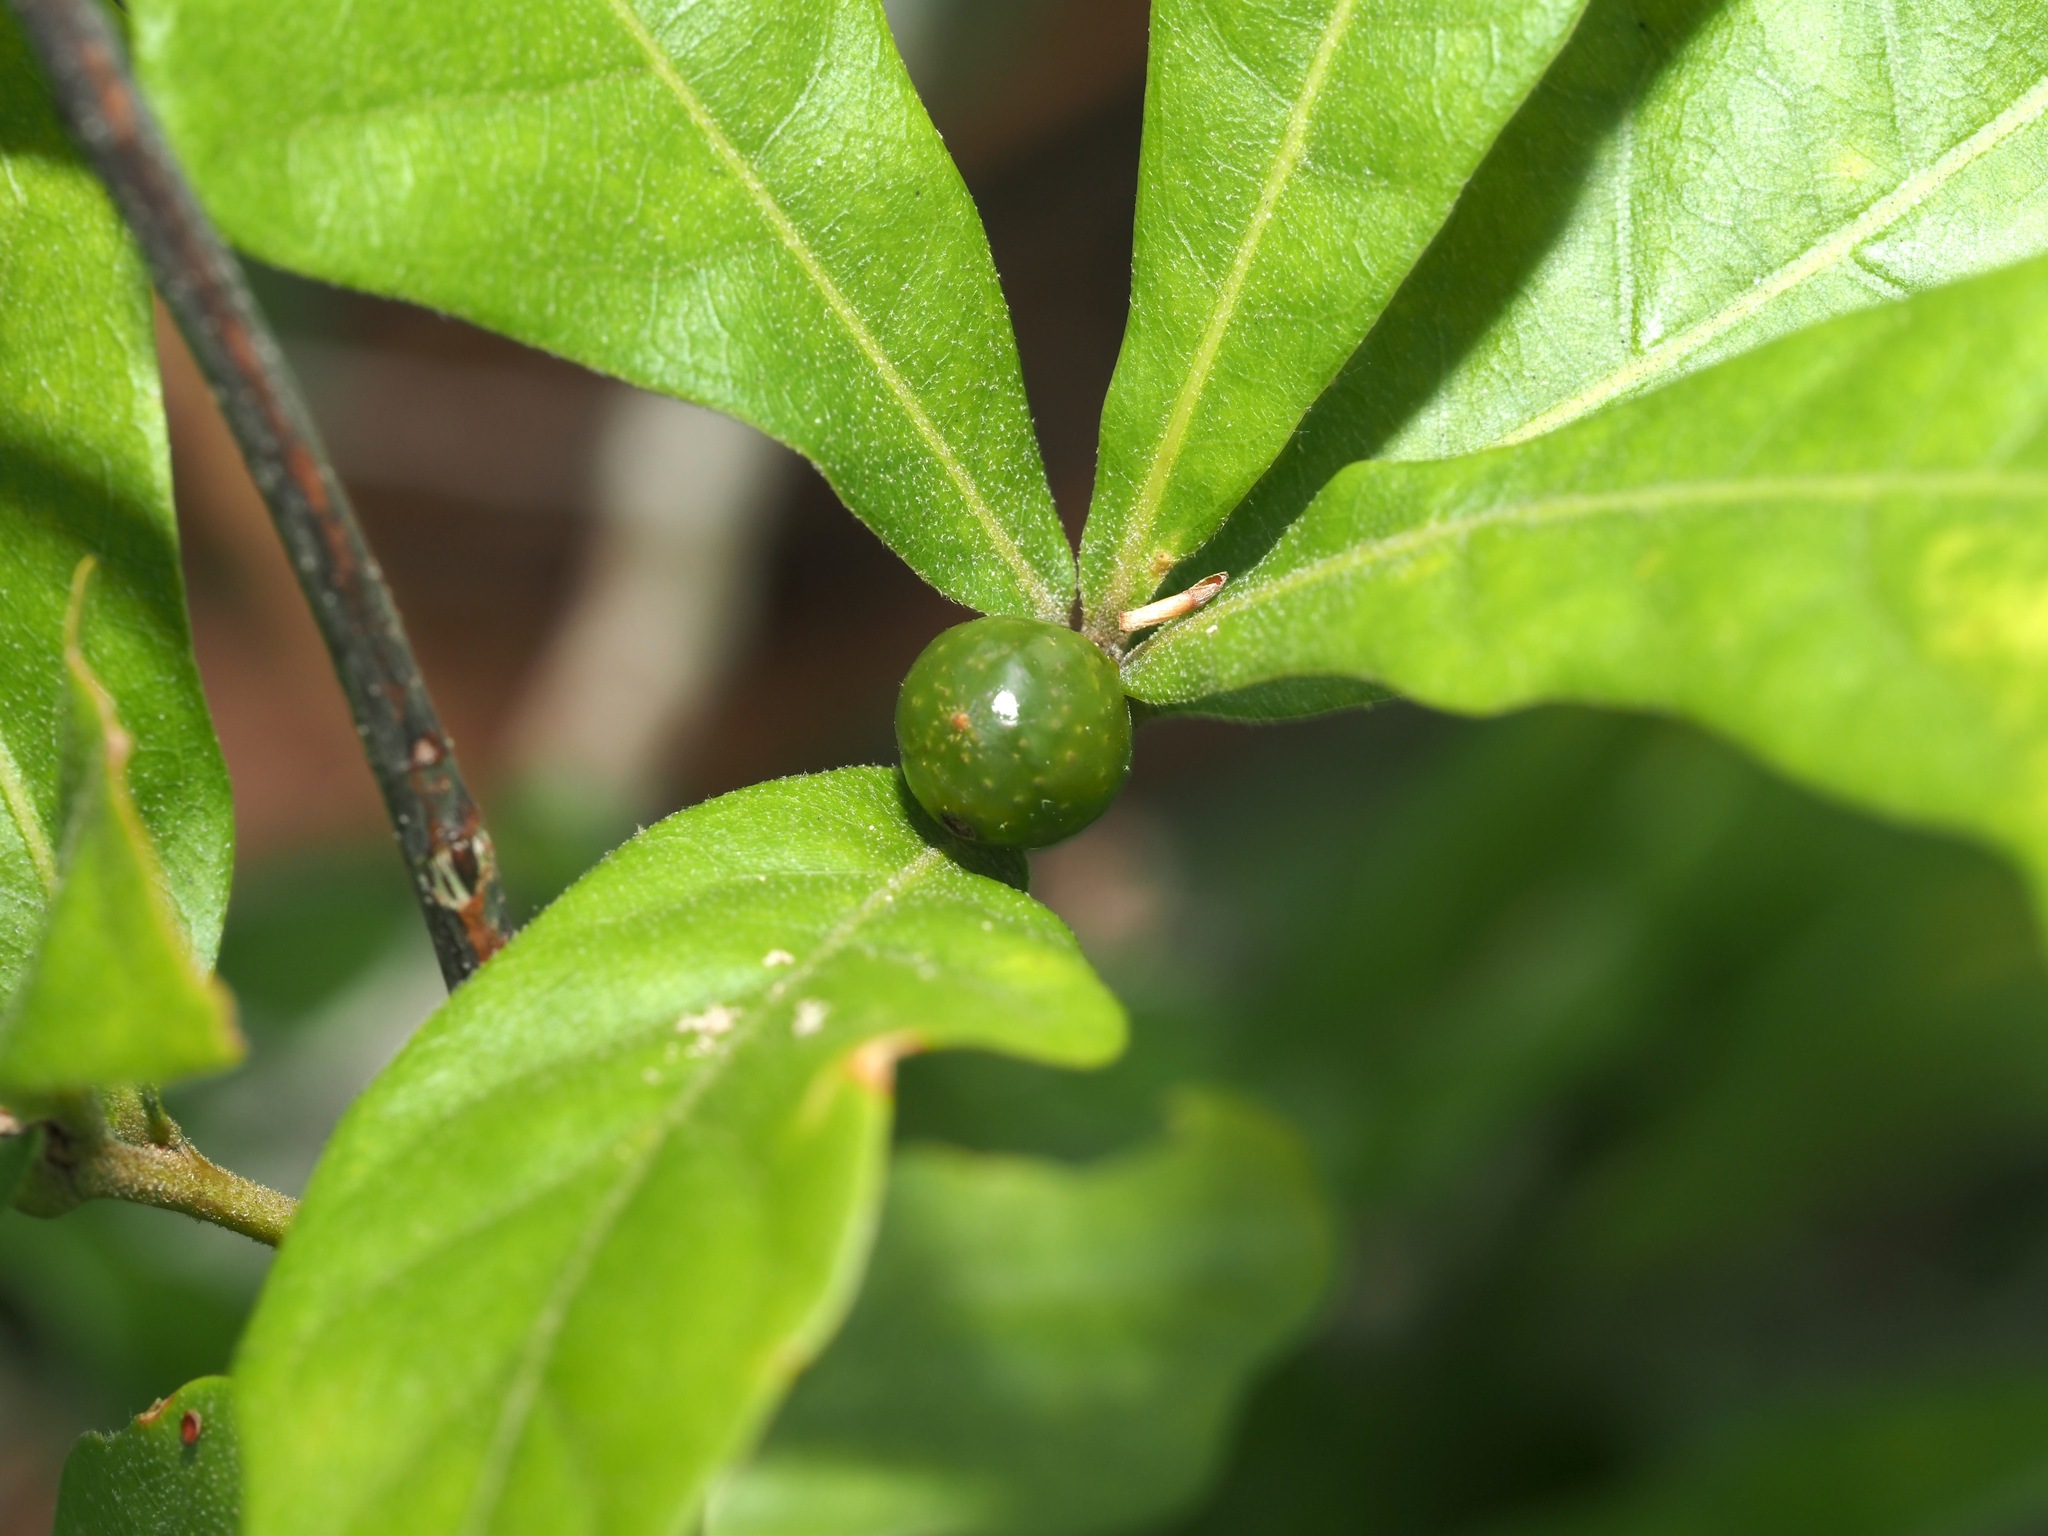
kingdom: Animalia
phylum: Arthropoda
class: Insecta
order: Hymenoptera
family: Cynipidae
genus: Amphibolips
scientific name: Amphibolips
